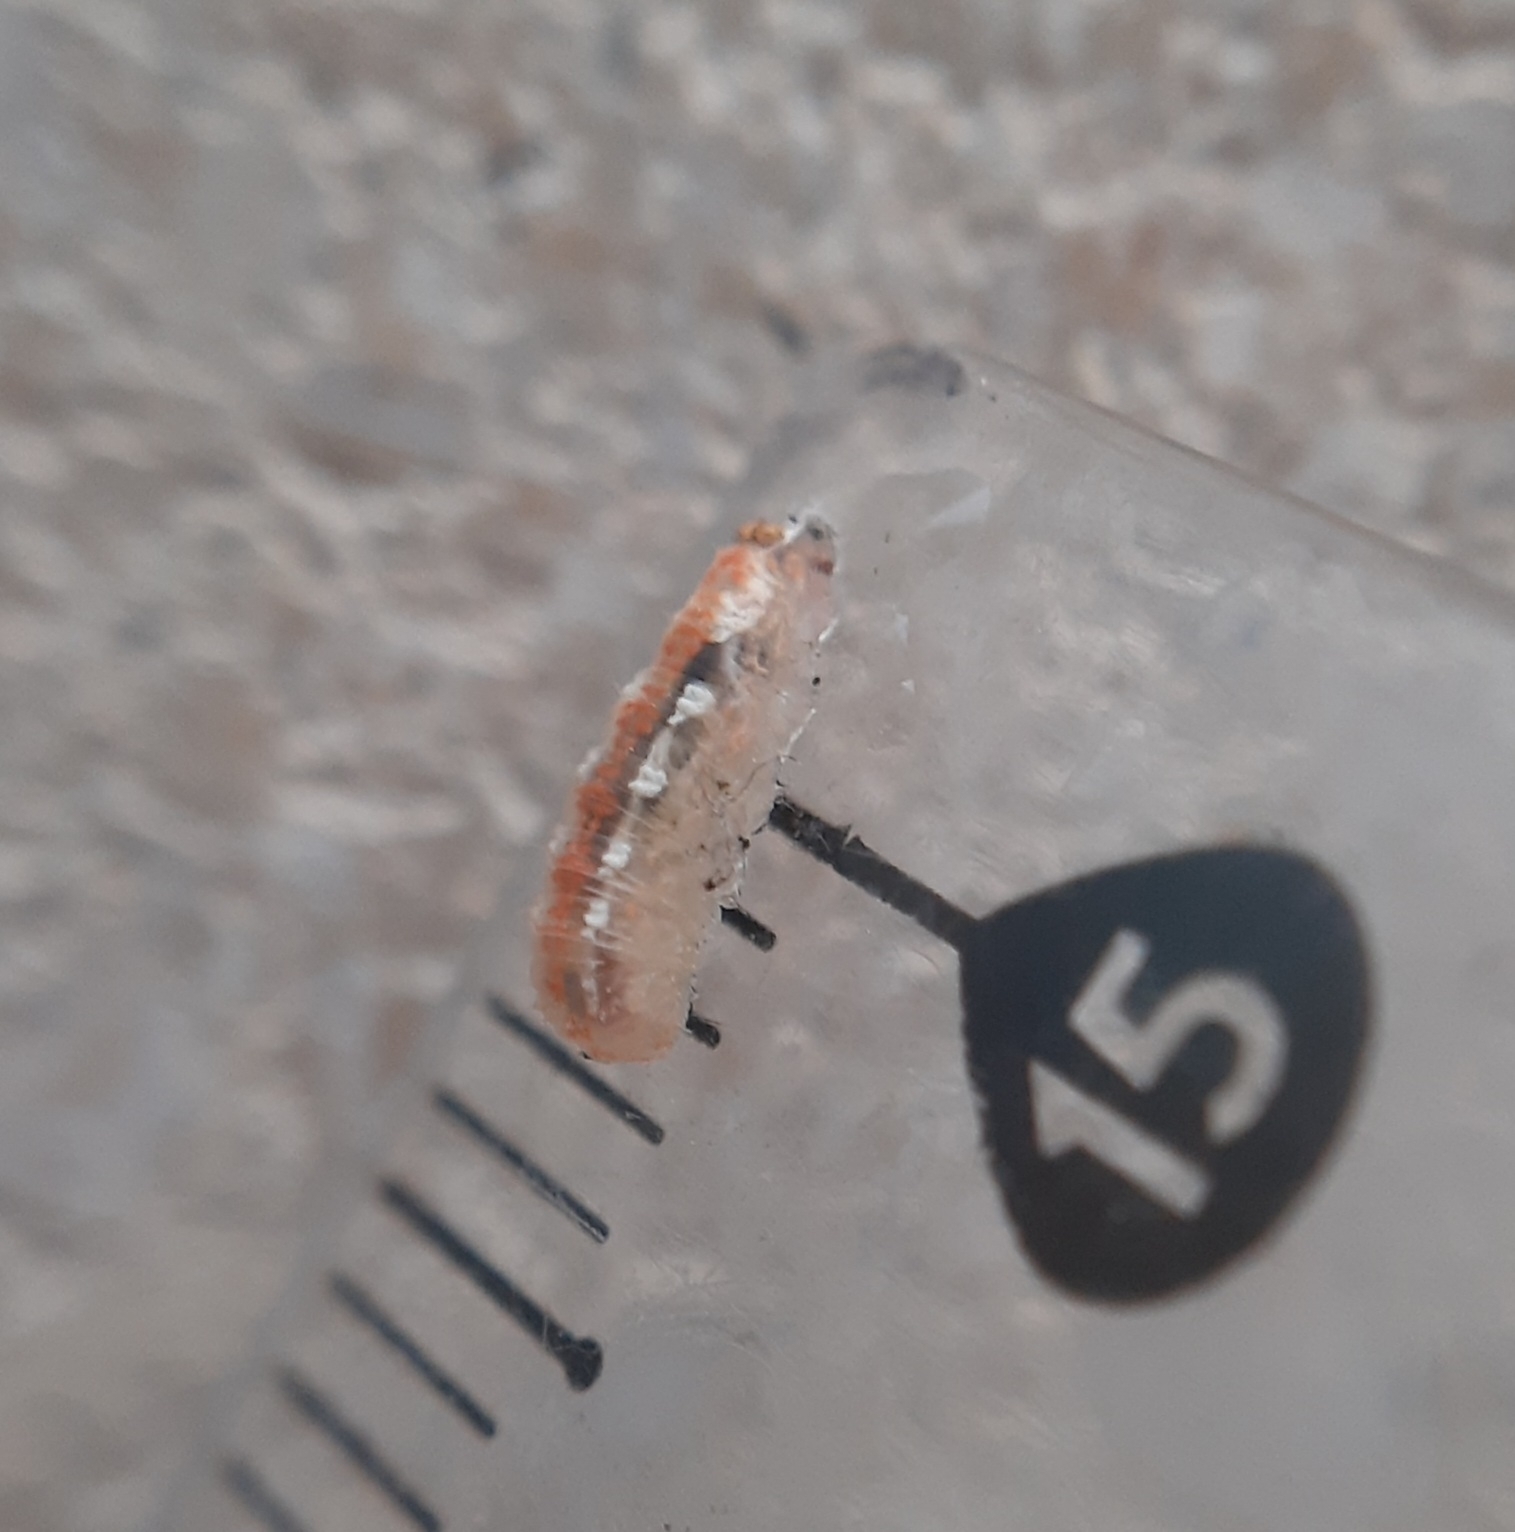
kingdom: Animalia
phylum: Arthropoda
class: Insecta
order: Diptera
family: Syrphidae
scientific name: Syrphidae
